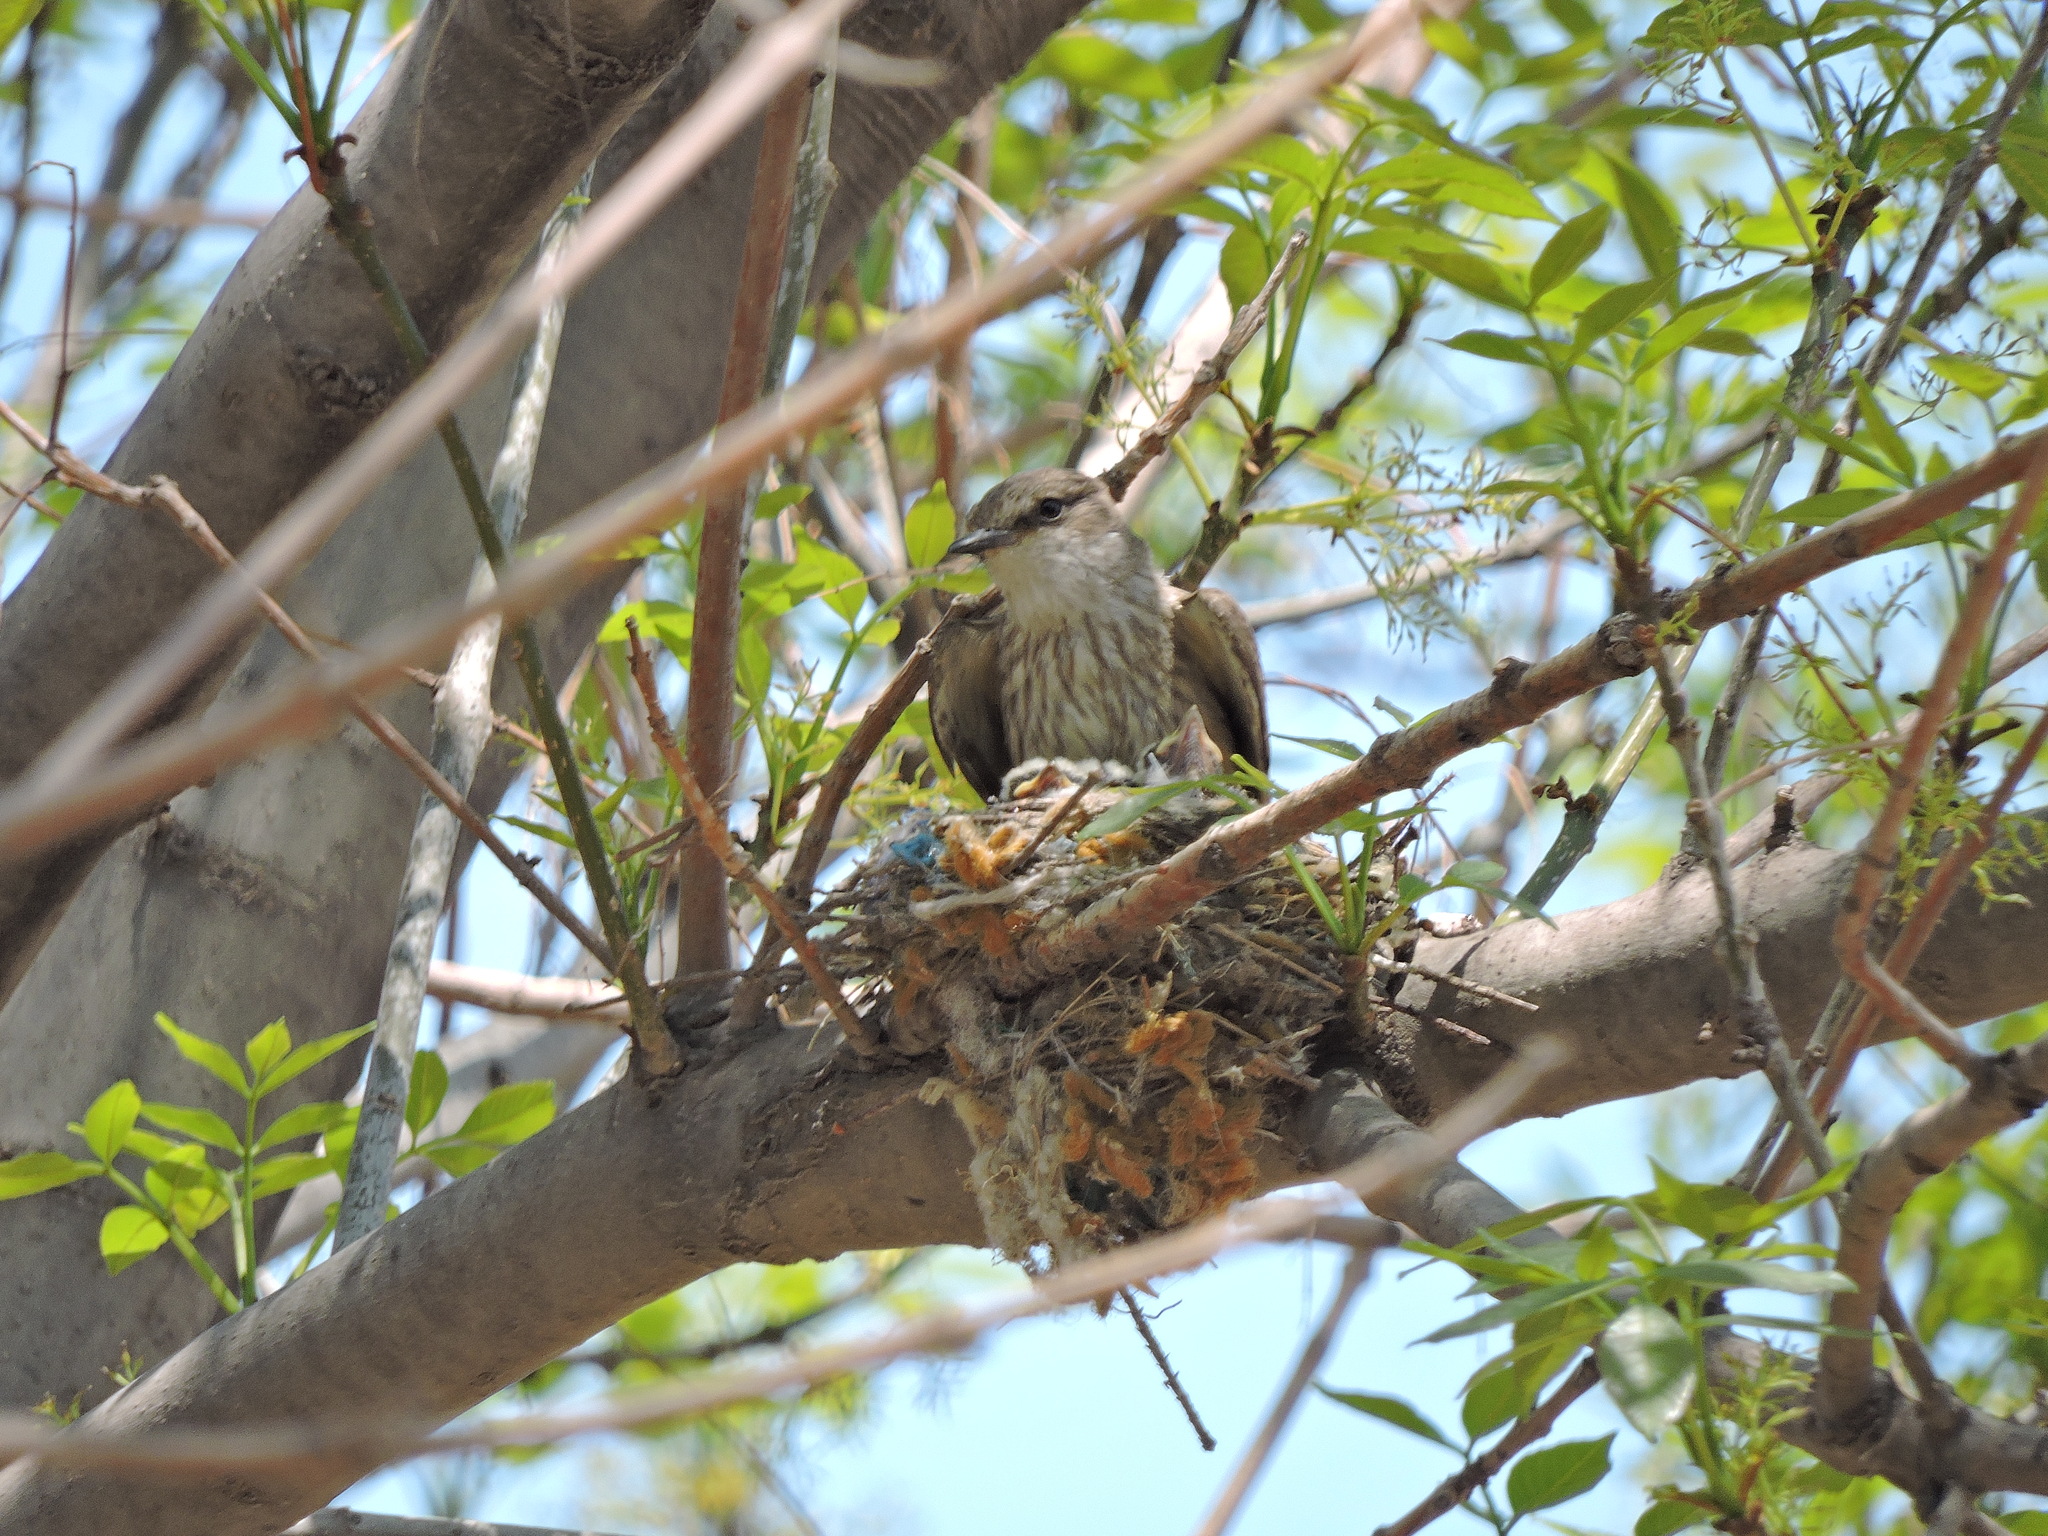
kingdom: Animalia
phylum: Chordata
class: Aves
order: Passeriformes
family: Tyrannidae
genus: Pyrocephalus
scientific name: Pyrocephalus rubinus
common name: Vermilion flycatcher
